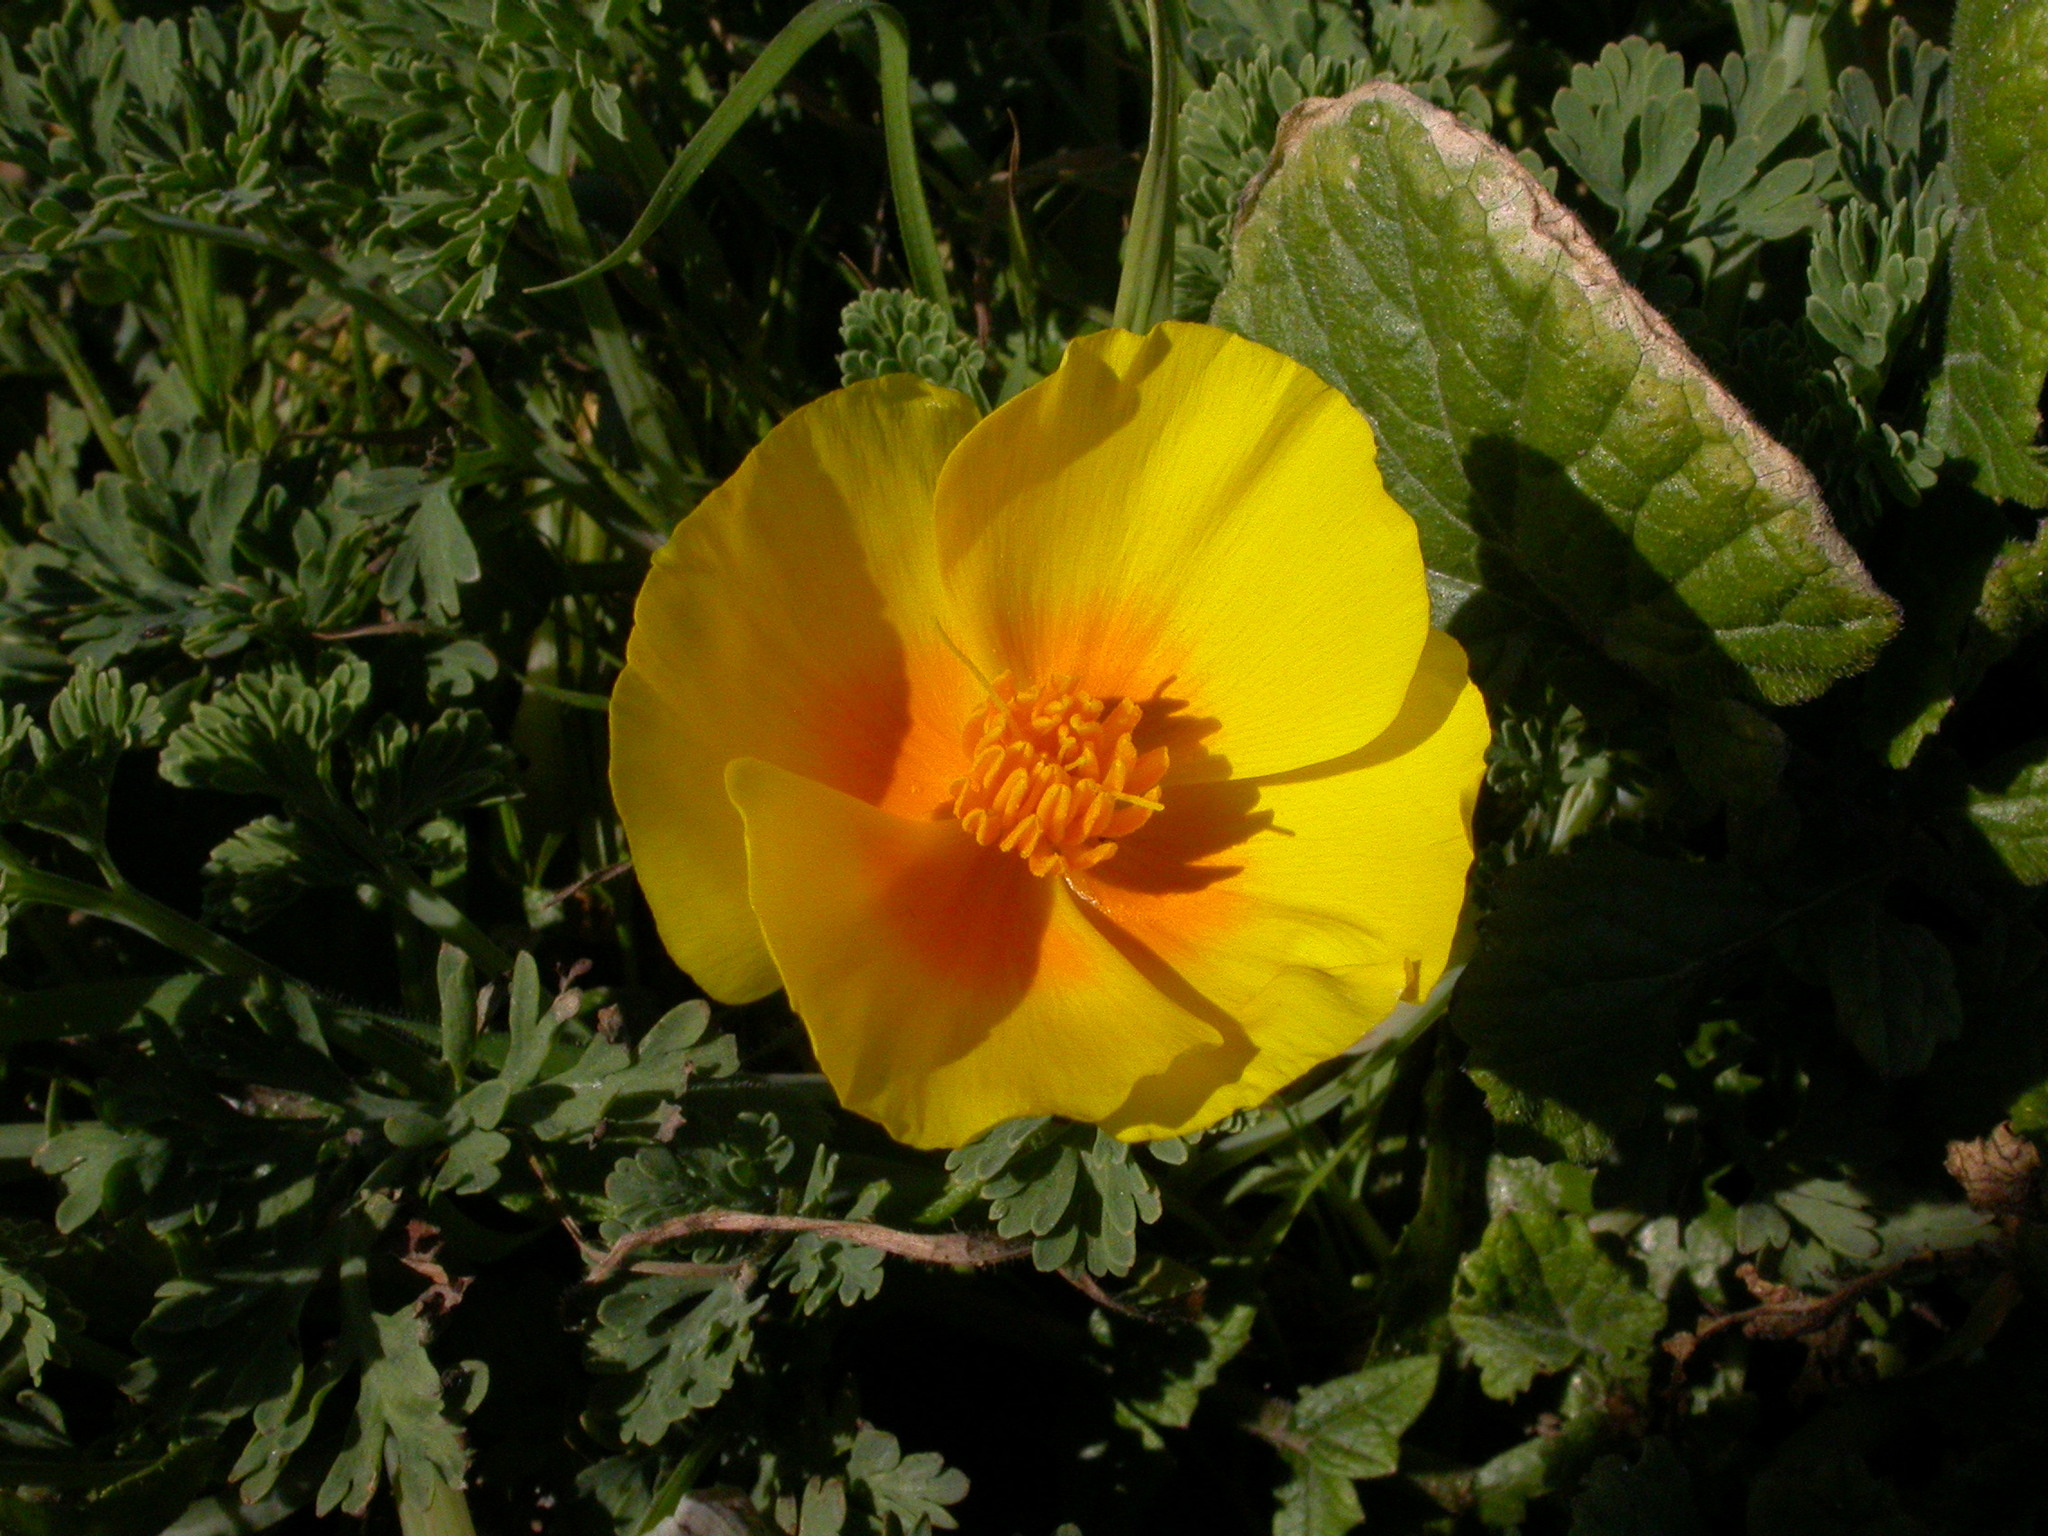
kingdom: Plantae
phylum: Tracheophyta
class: Magnoliopsida
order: Ranunculales
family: Papaveraceae
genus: Eschscholzia
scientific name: Eschscholzia californica
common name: California poppy
